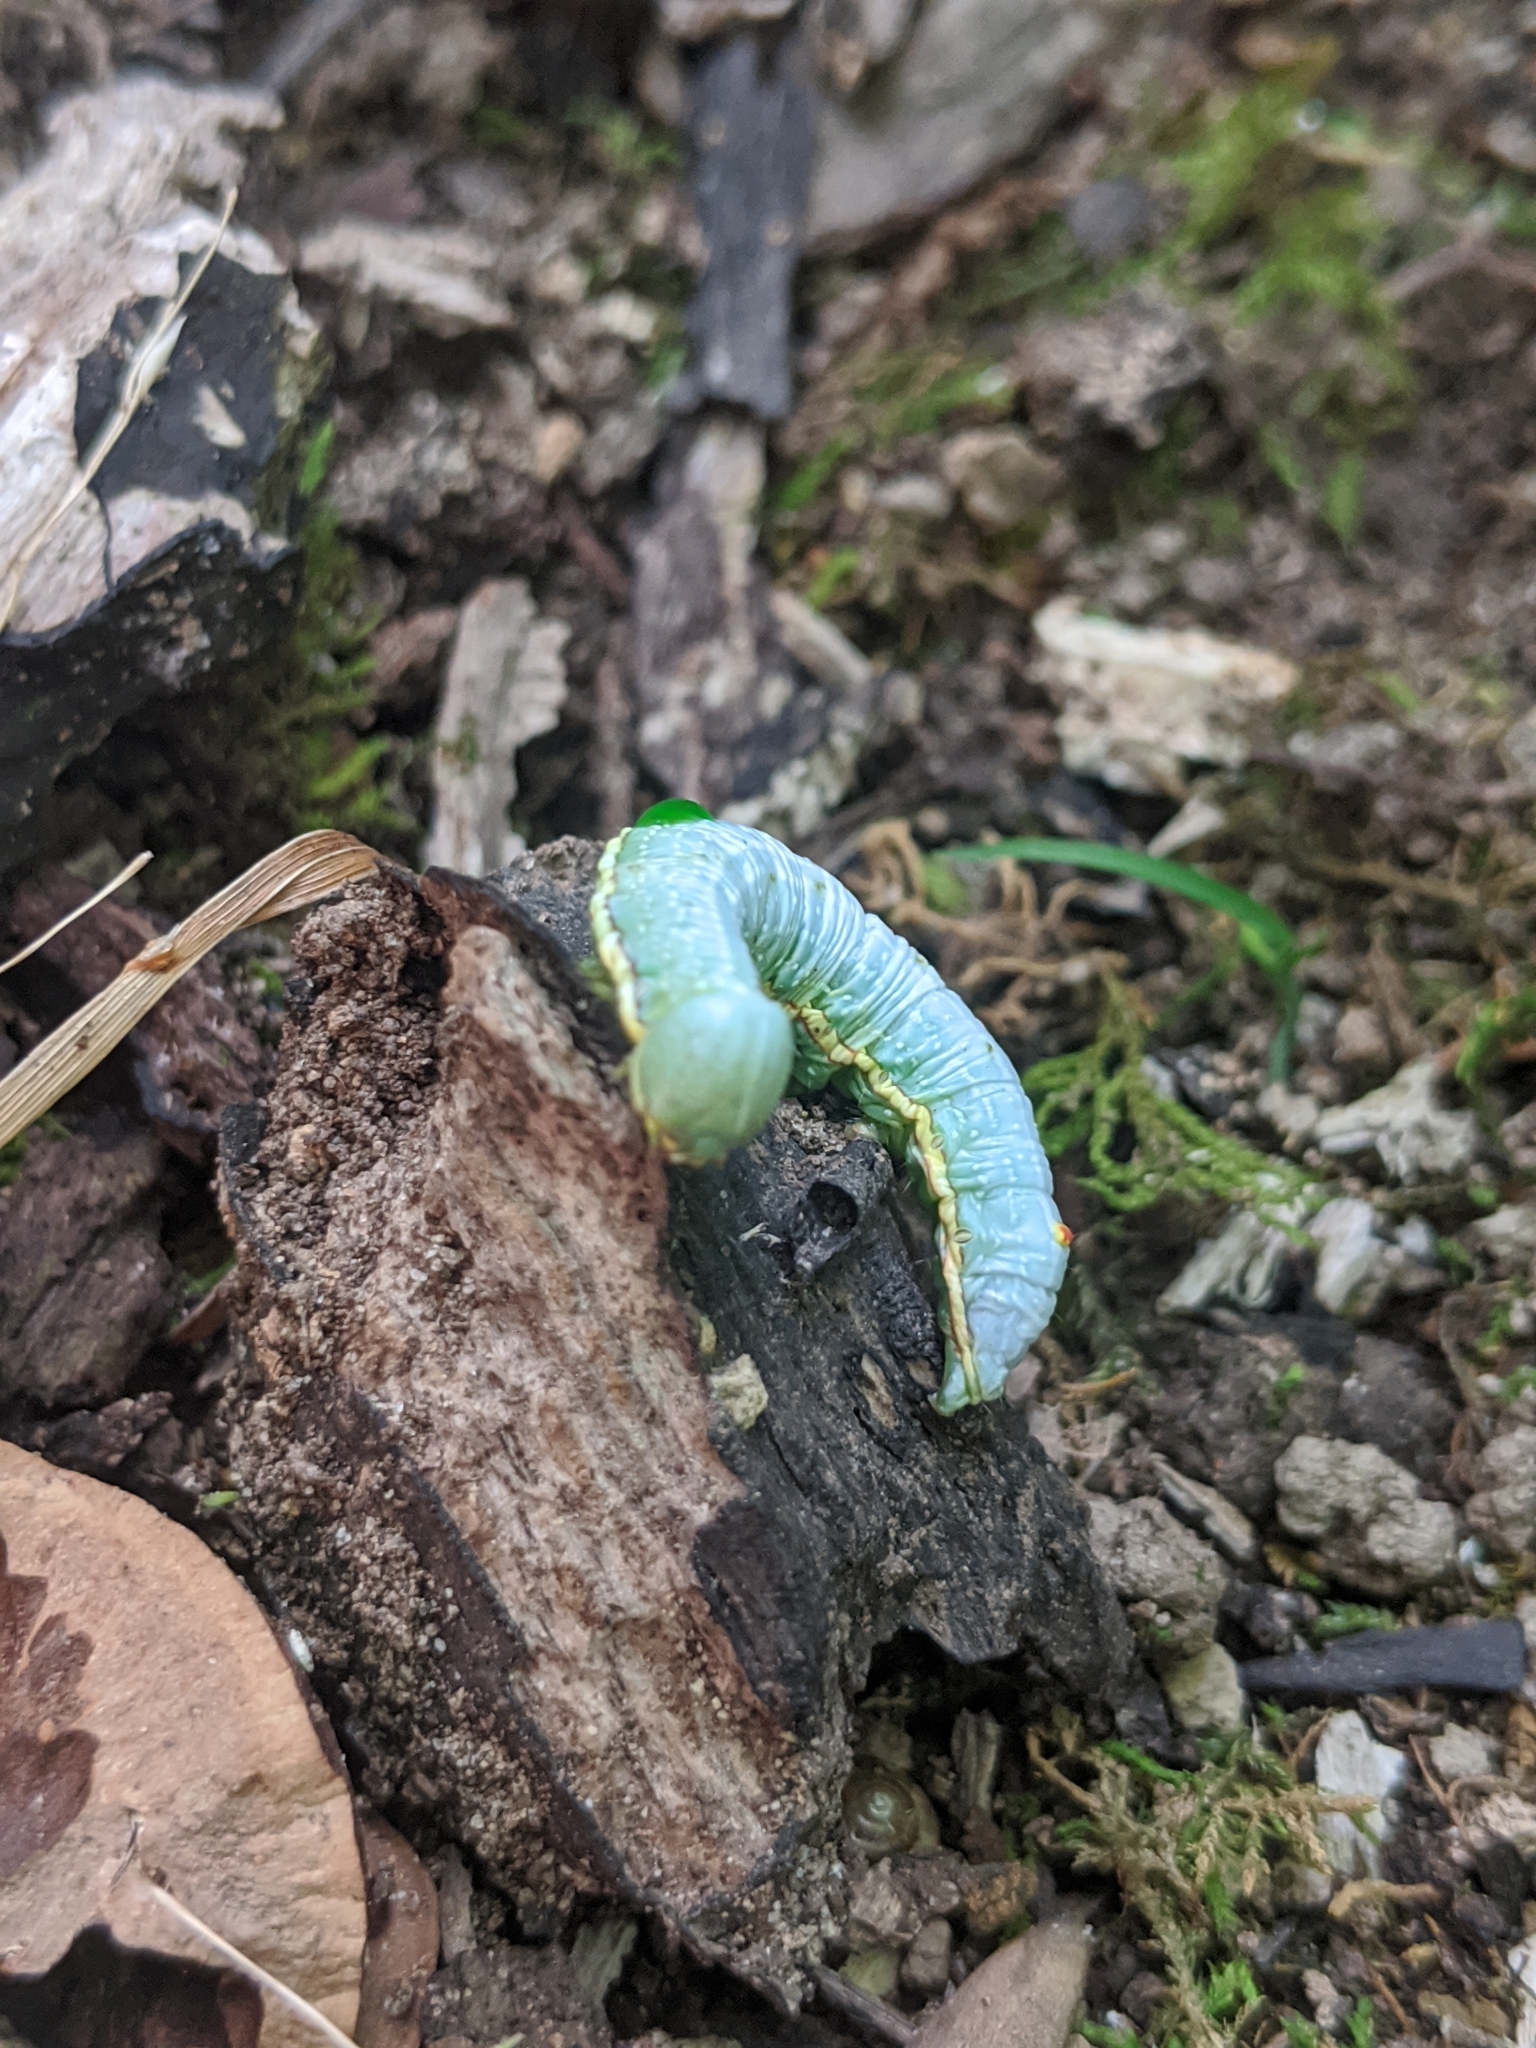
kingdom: Animalia
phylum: Arthropoda
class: Insecta
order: Lepidoptera
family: Notodontidae
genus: Paraeschra
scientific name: Paraeschra georgica
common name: Georgian prominent
